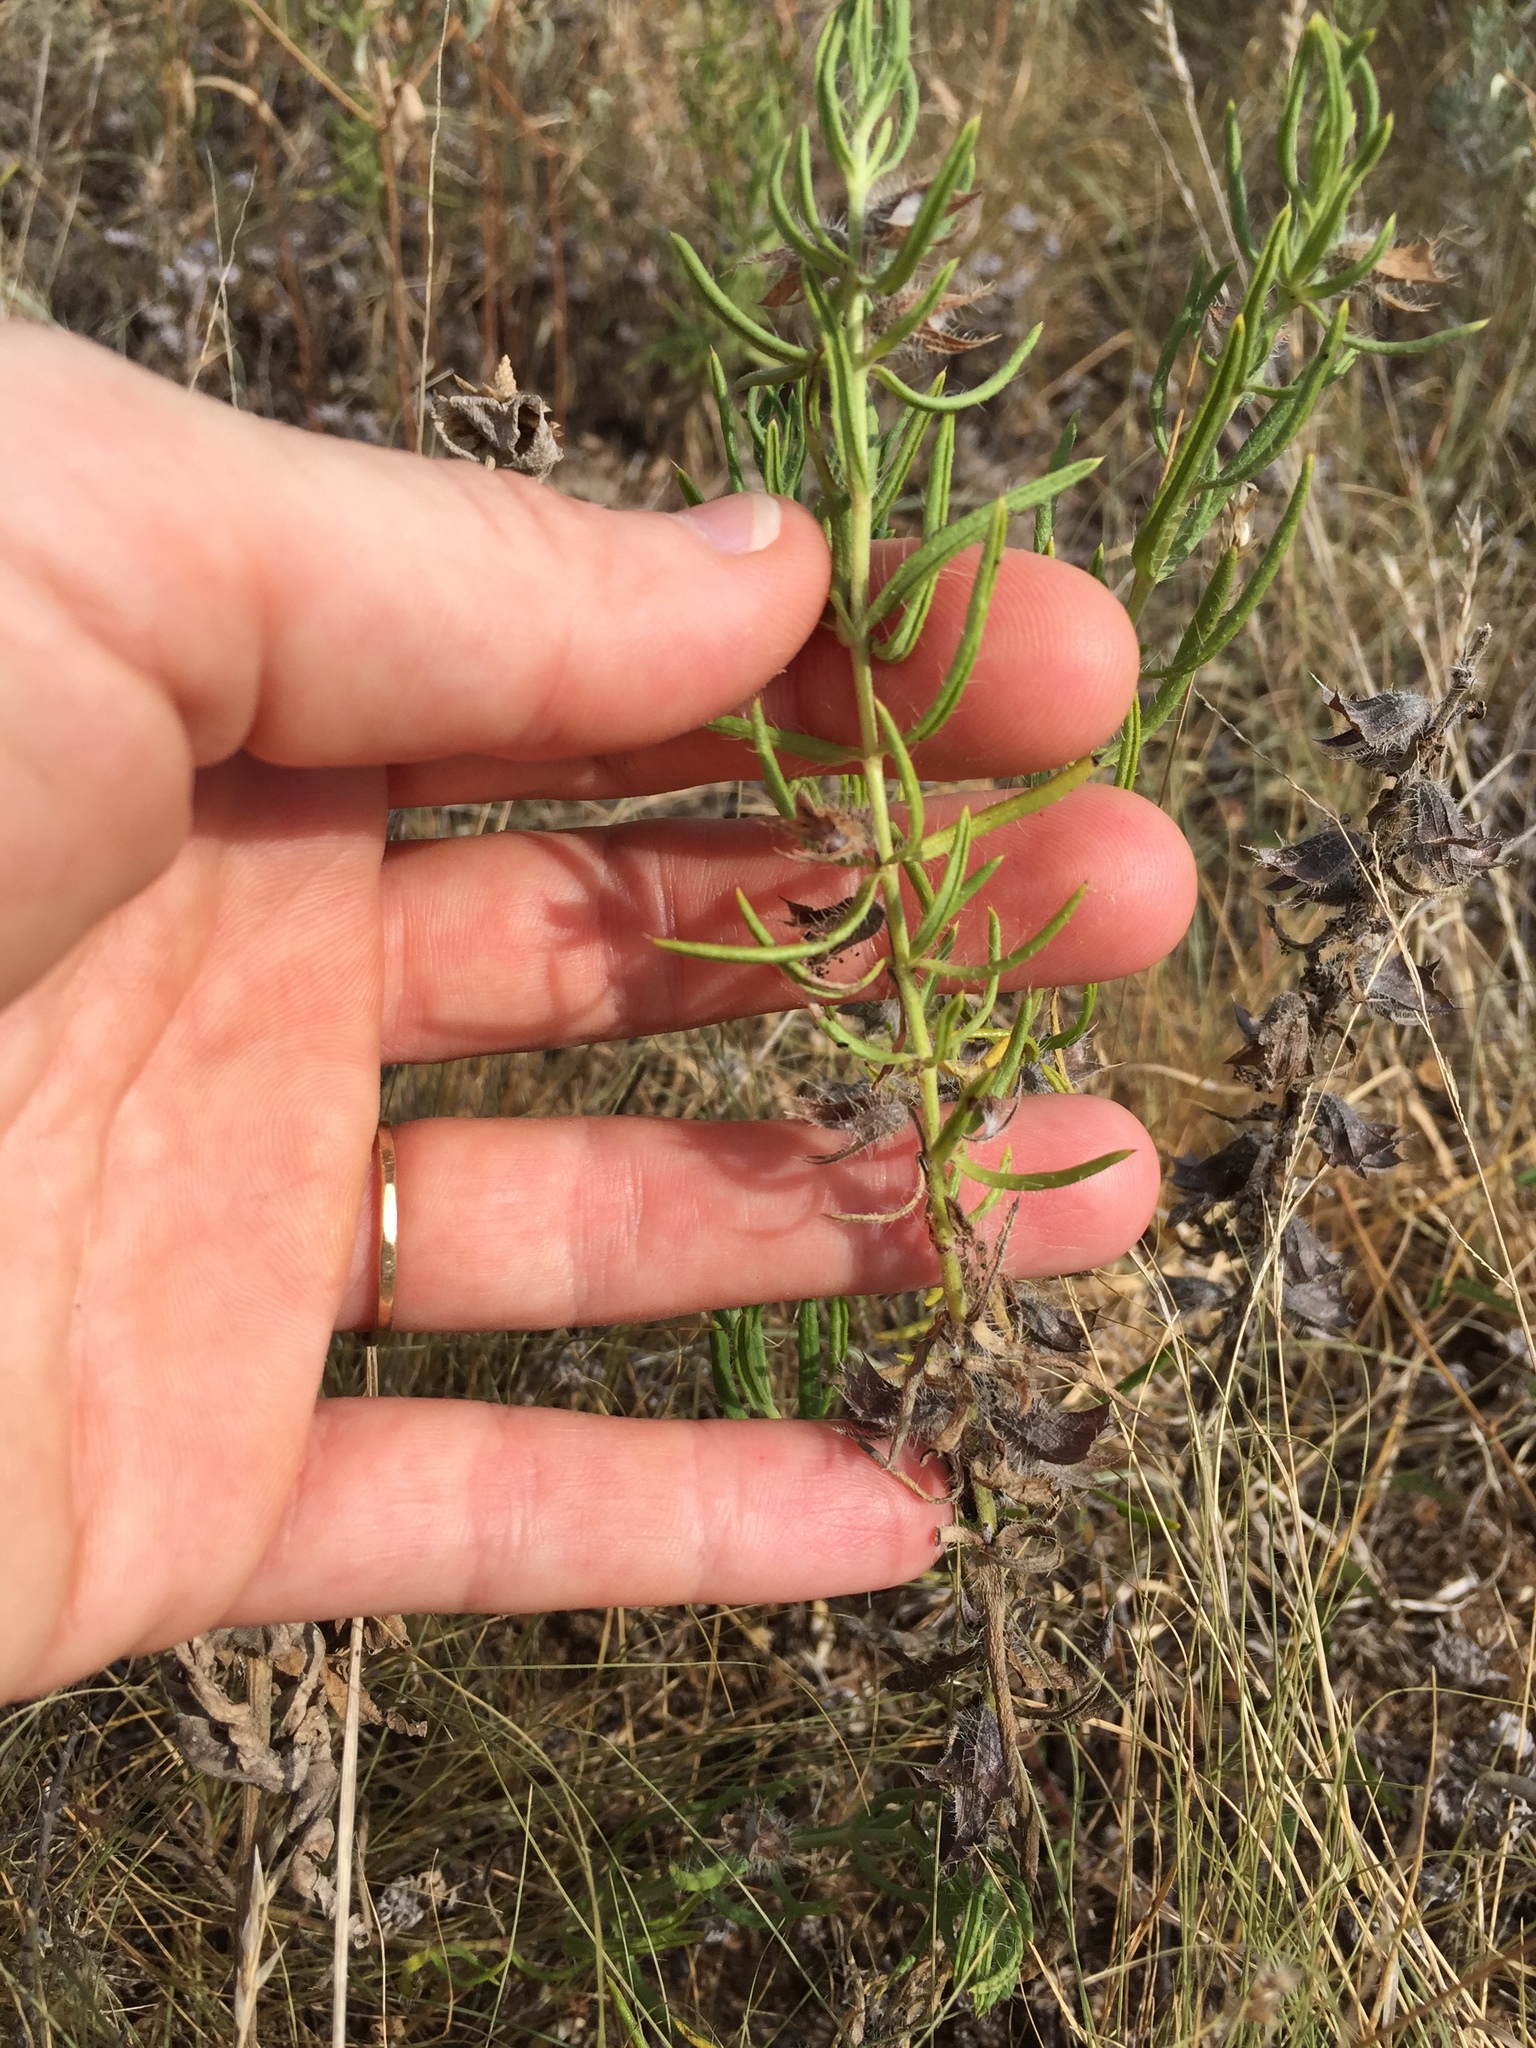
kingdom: Plantae
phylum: Tracheophyta
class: Magnoliopsida
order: Lamiales
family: Lamiaceae
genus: Salvia
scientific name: Salvia engelmannii
